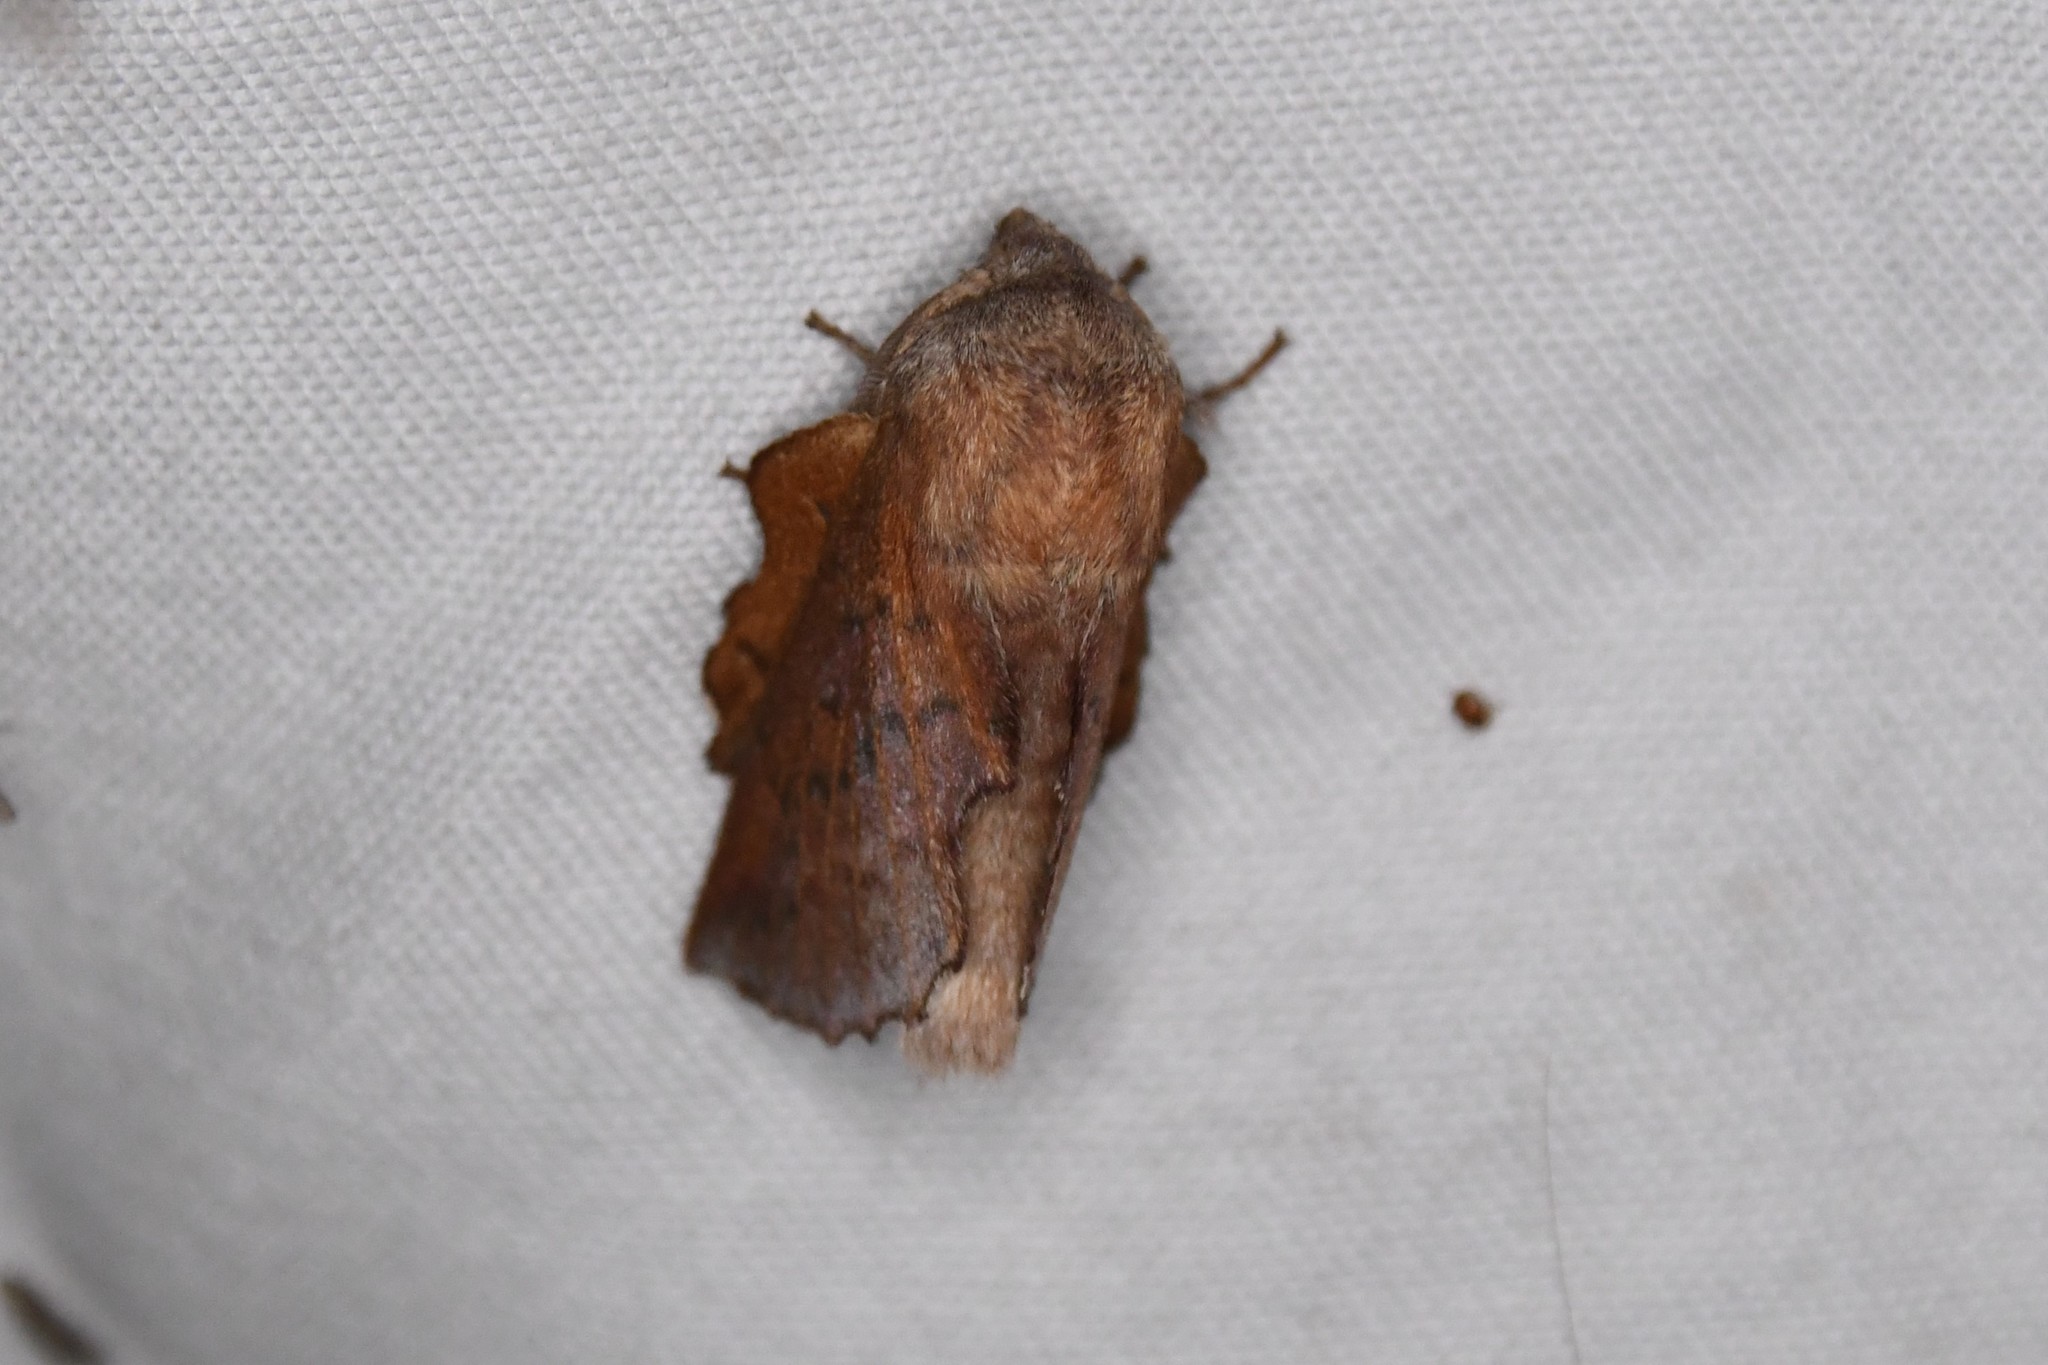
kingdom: Animalia
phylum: Arthropoda
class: Insecta
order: Lepidoptera
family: Lasiocampidae
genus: Phyllodesma
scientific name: Phyllodesma americana
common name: American lappet moth
